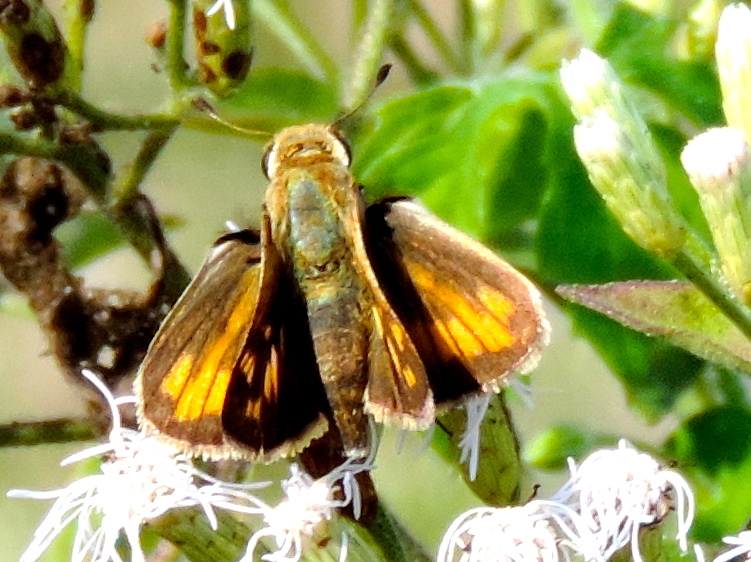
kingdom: Animalia
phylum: Arthropoda
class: Insecta
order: Lepidoptera
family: Hesperiidae
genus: Hylephila
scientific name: Hylephila phyleus
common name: Fiery skipper
